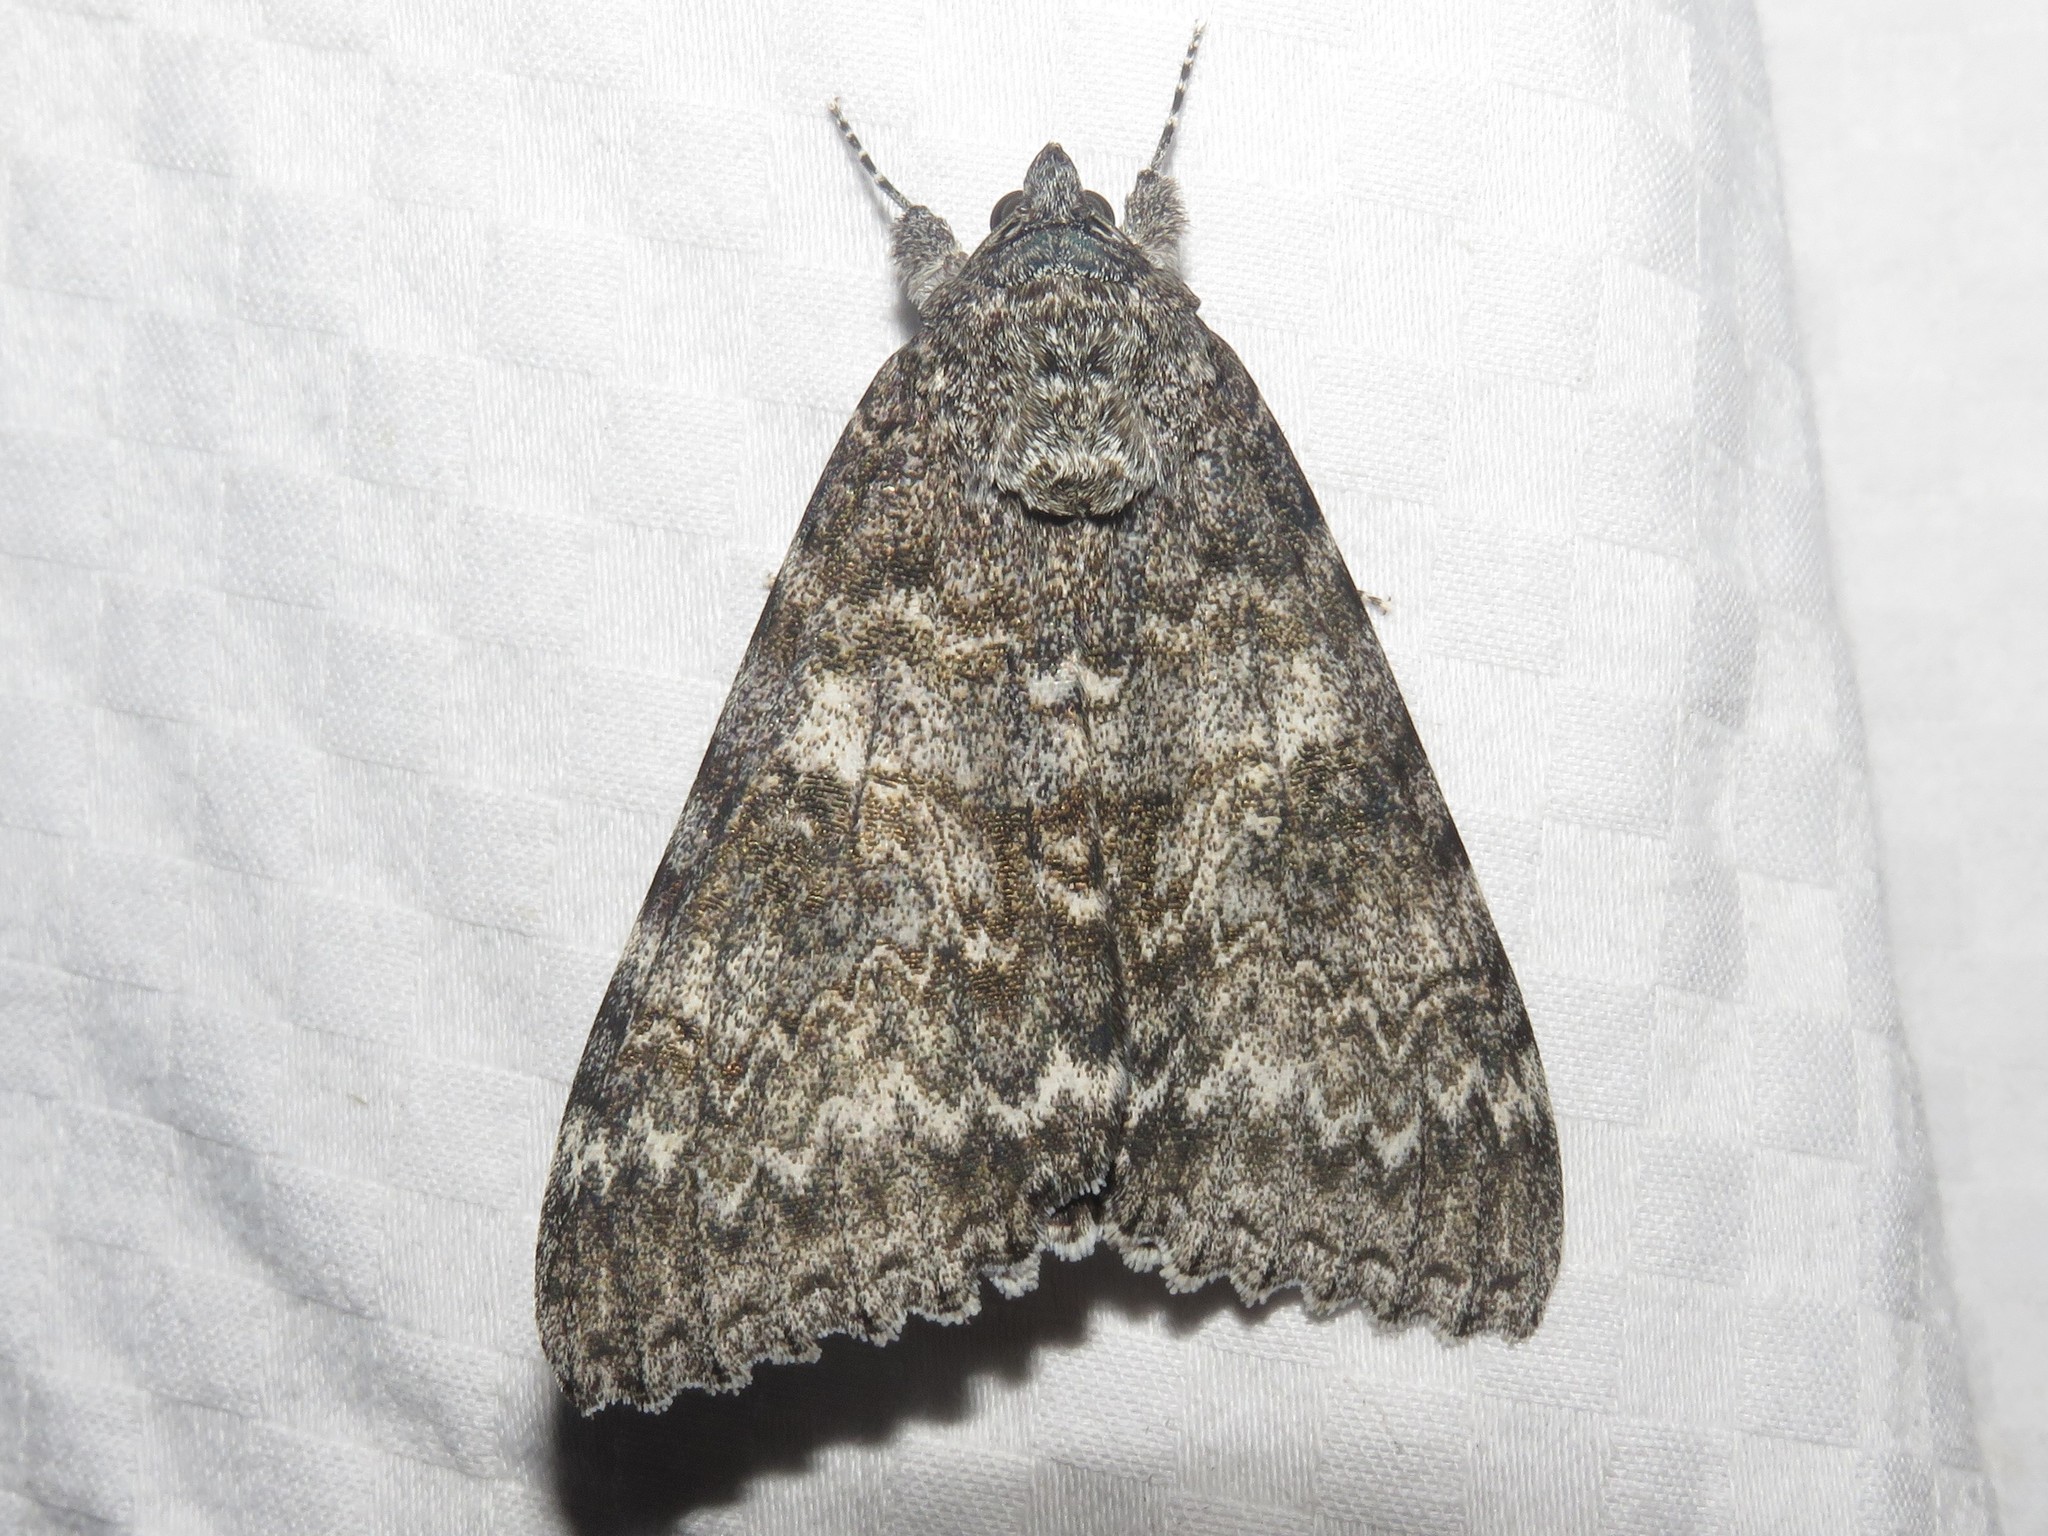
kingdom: Animalia
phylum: Arthropoda
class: Insecta
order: Lepidoptera
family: Erebidae
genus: Catocala
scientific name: Catocala unijuga
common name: Once-married underwing
